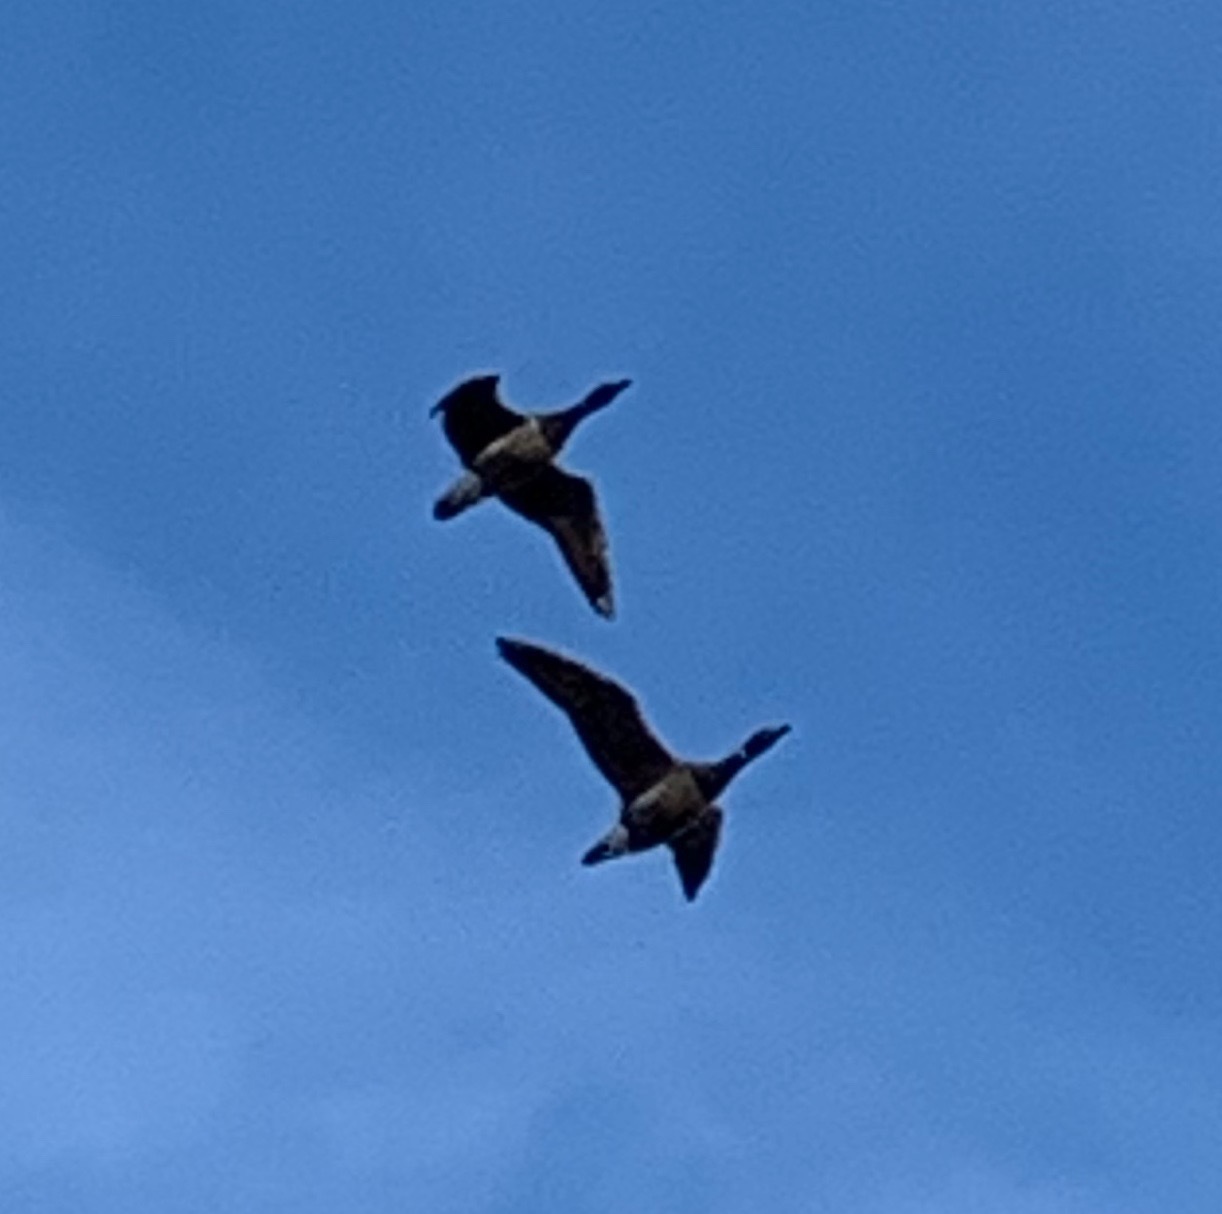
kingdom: Animalia
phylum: Chordata
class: Aves
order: Anseriformes
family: Anatidae
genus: Branta
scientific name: Branta bernicla
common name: Brant goose
